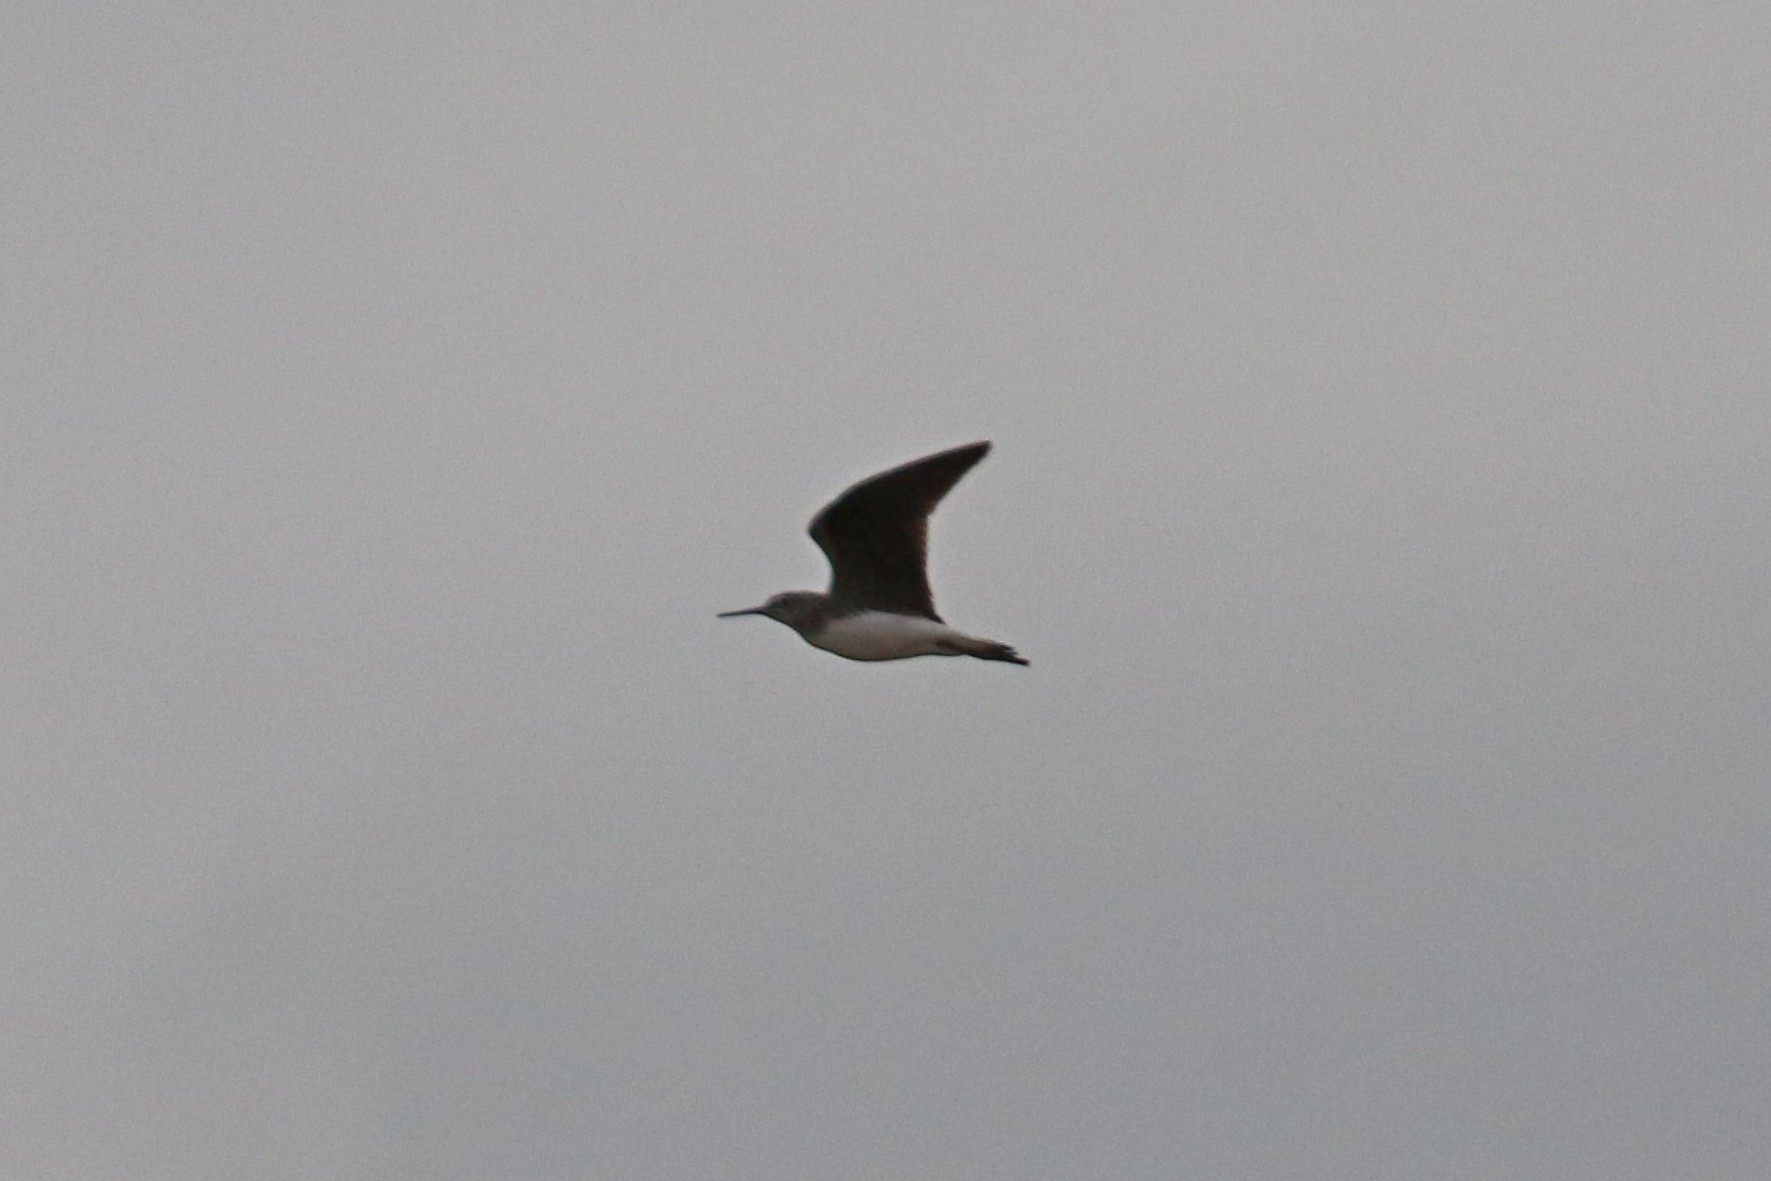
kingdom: Animalia
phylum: Chordata
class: Aves
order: Charadriiformes
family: Scolopacidae
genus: Tringa
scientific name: Tringa ochropus
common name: Green sandpiper
